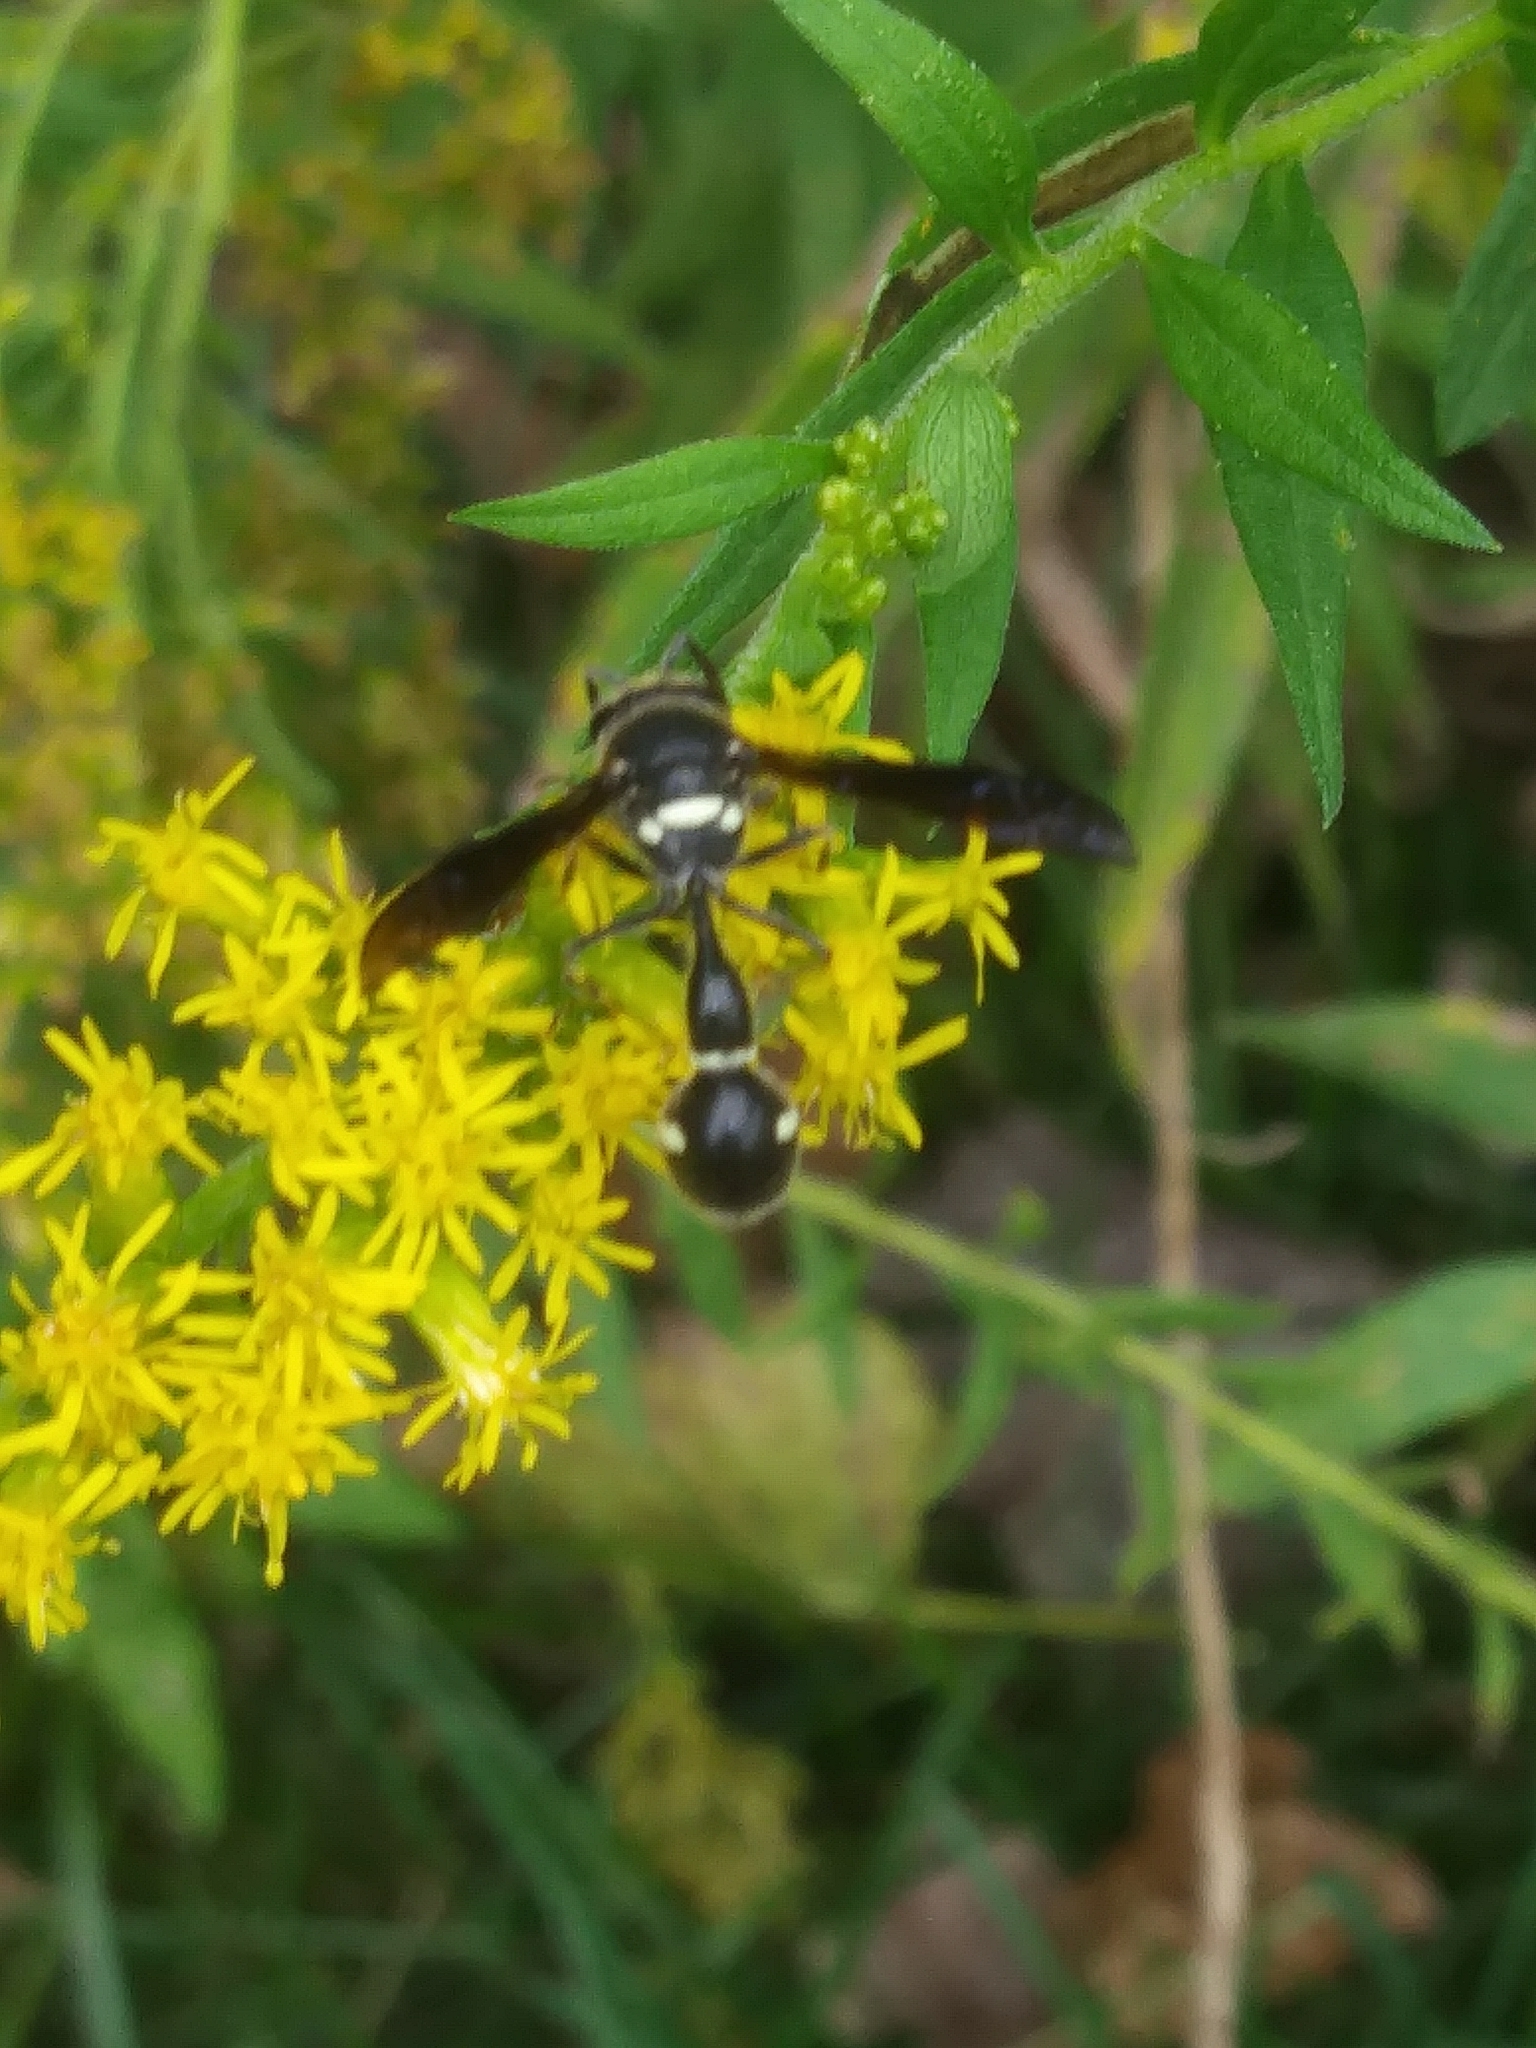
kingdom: Animalia
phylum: Arthropoda
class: Insecta
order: Hymenoptera
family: Vespidae
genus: Eumenes
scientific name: Eumenes fraternus
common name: Fraternal potter wasp
